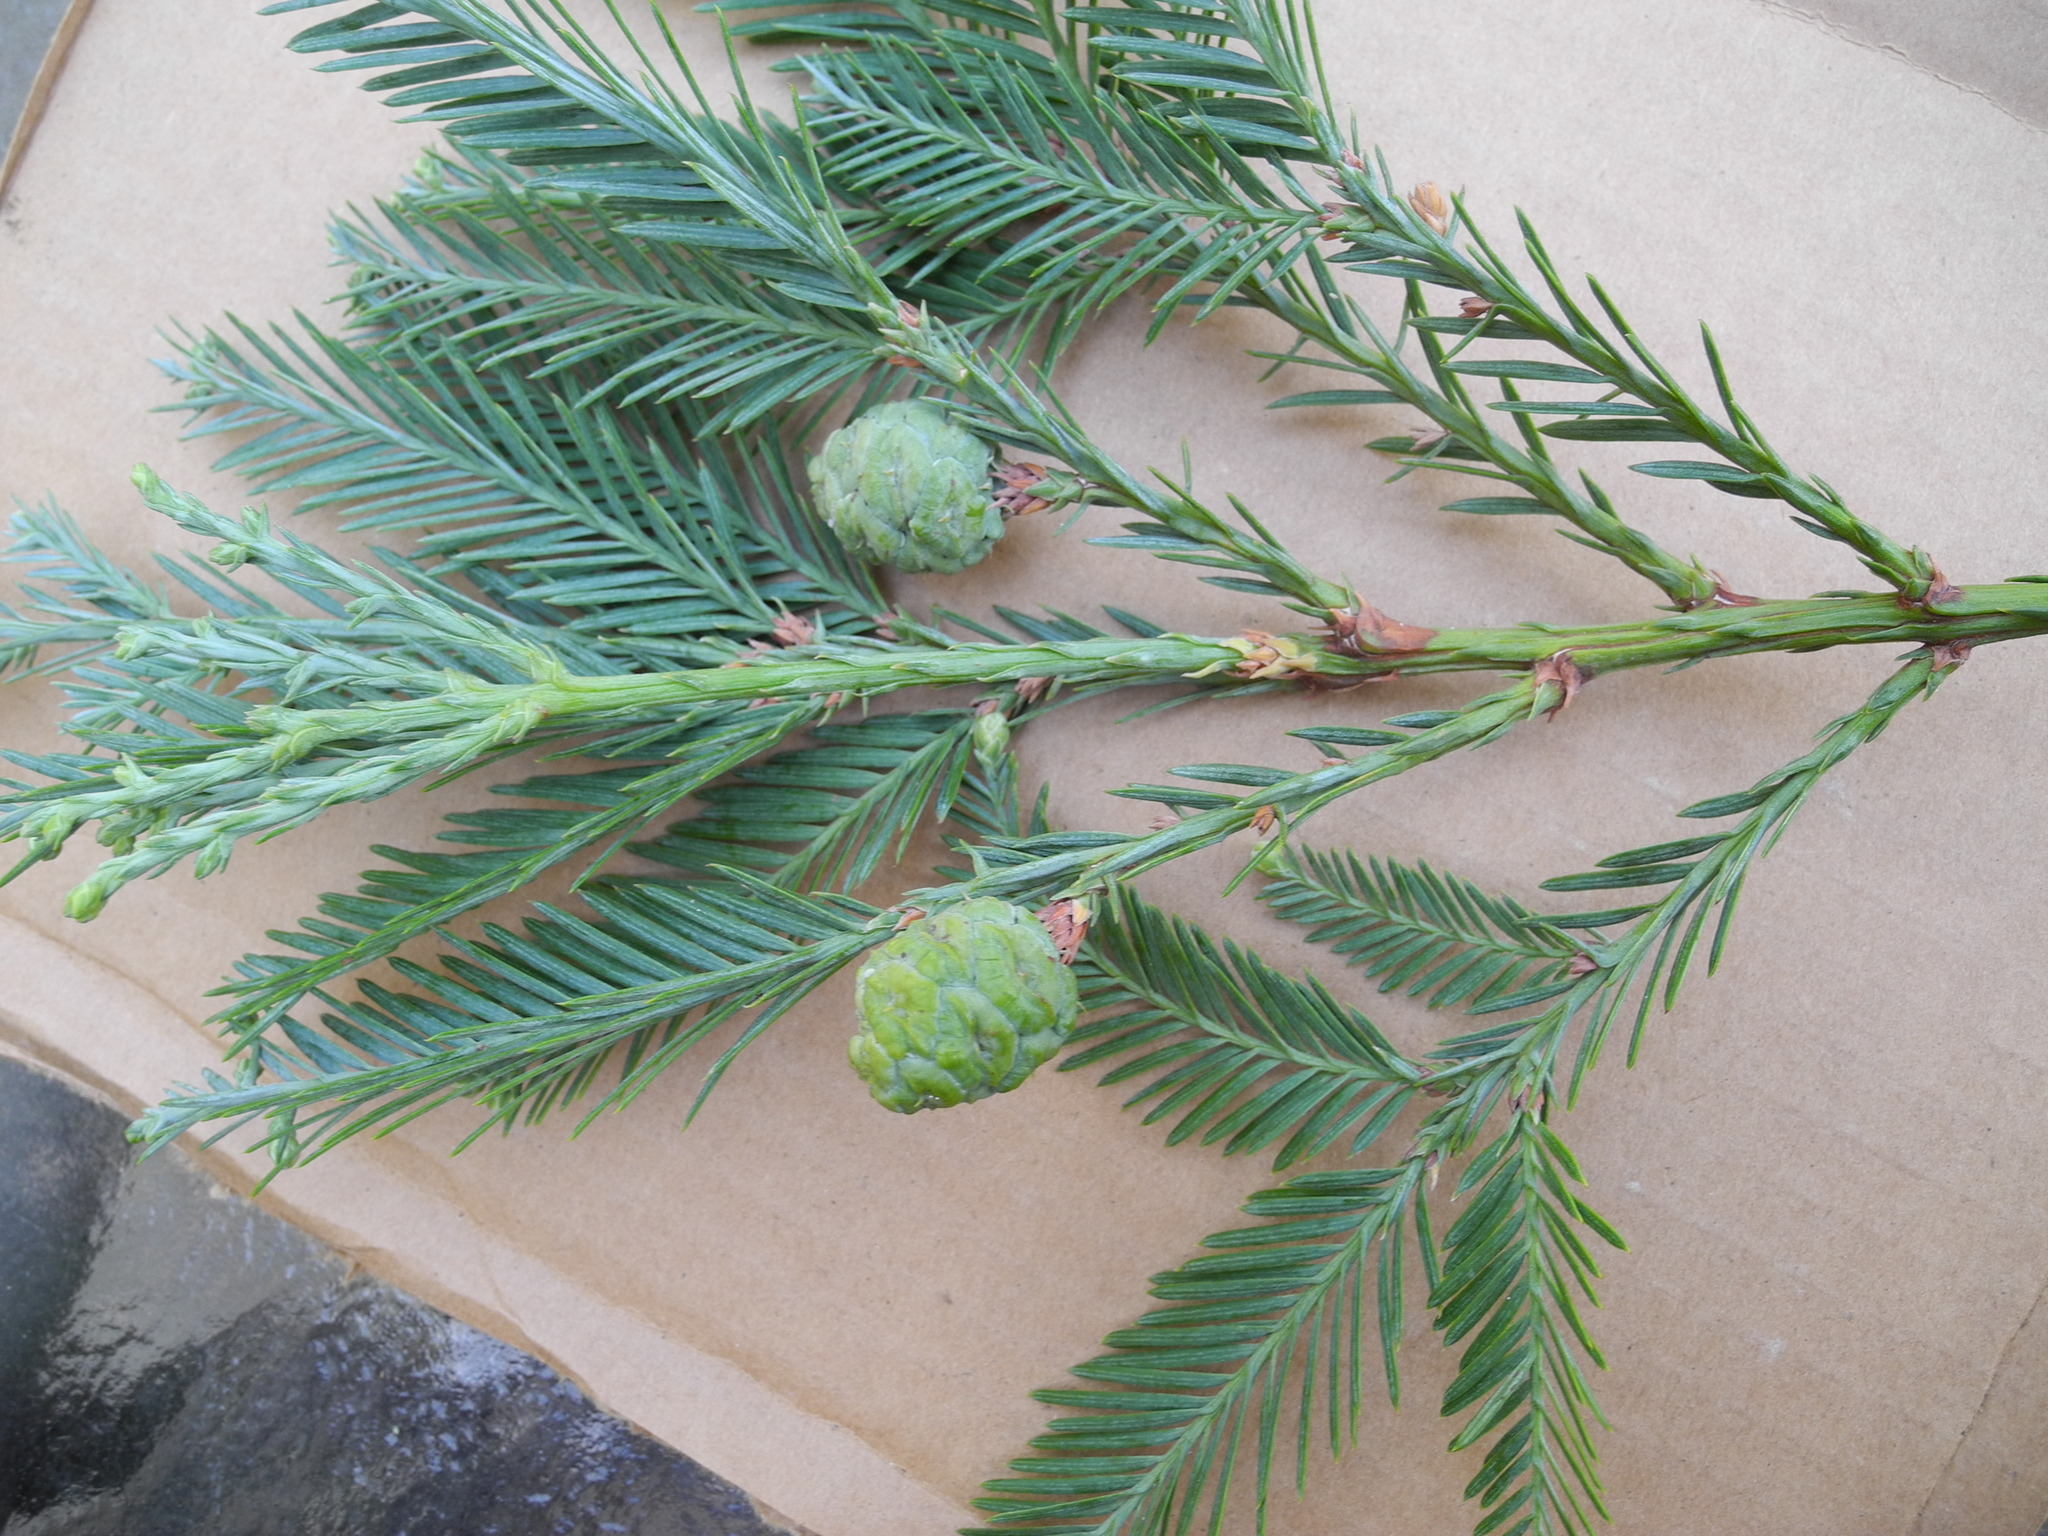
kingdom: Plantae
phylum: Tracheophyta
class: Pinopsida
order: Pinales
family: Cupressaceae
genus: Sequoia
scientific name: Sequoia sempervirens
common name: Coast redwood
